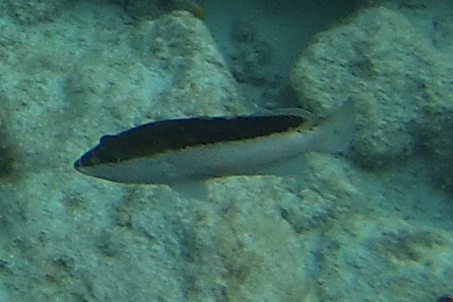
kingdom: Animalia
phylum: Chordata
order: Perciformes
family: Serranidae
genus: Cephalopholis
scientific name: Cephalopholis fulva
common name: Butterfish
